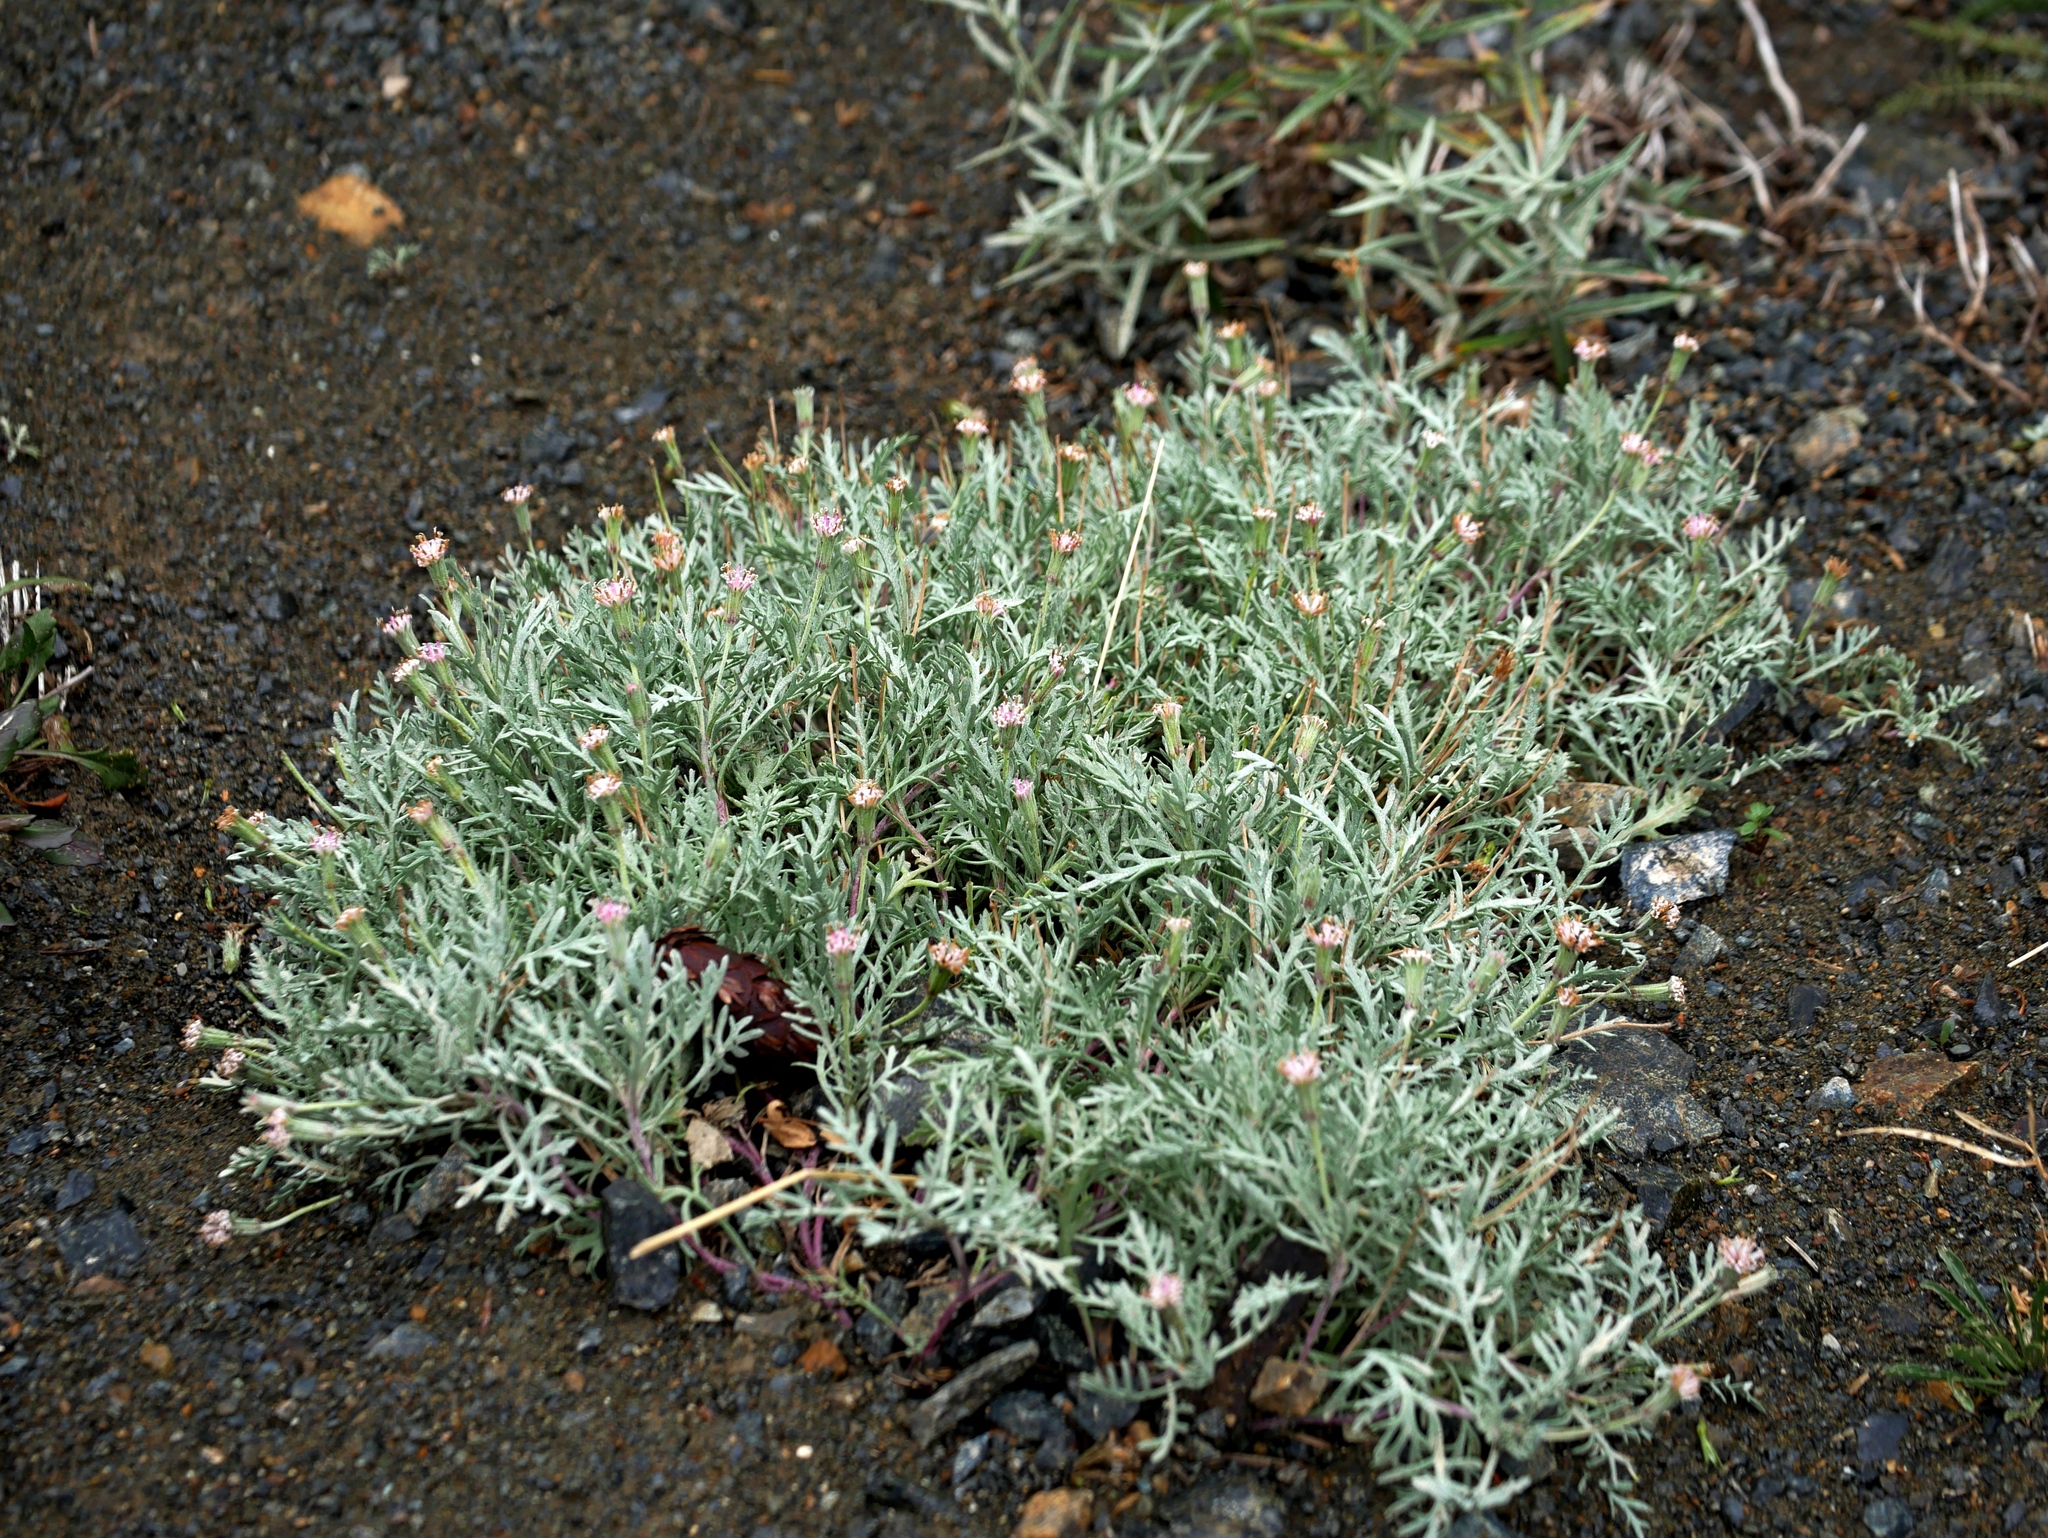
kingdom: Plantae
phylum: Tracheophyta
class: Magnoliopsida
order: Asterales
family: Asteraceae
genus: Chaenactis
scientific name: Chaenactis thompsonii
